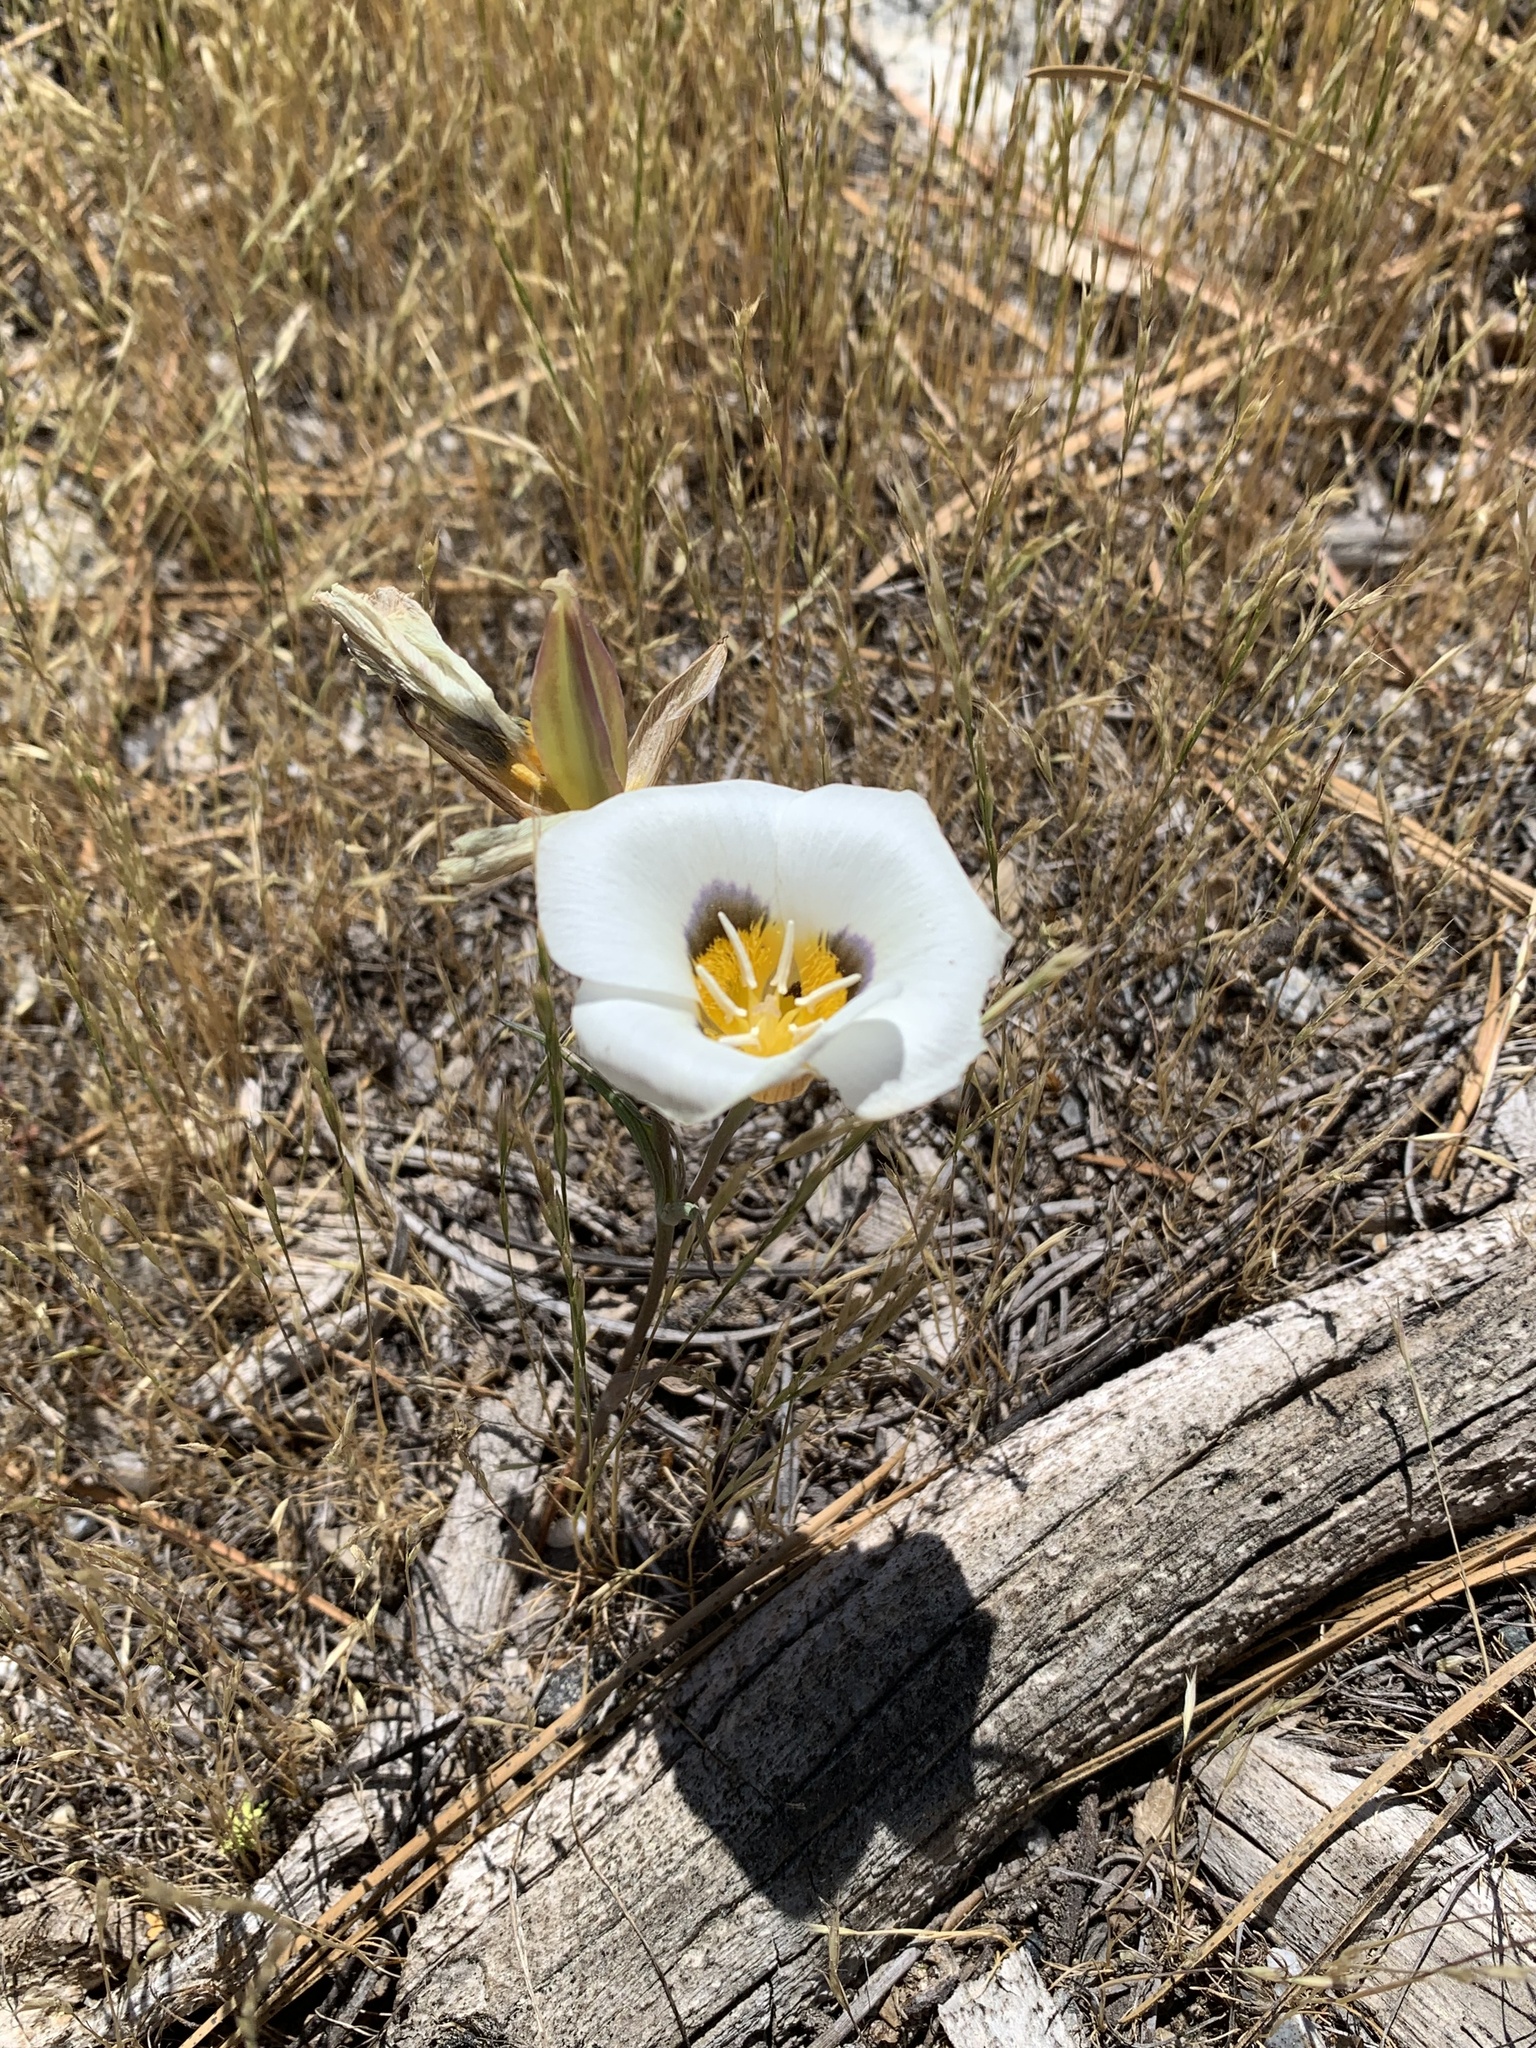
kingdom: Plantae
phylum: Tracheophyta
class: Liliopsida
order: Liliales
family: Liliaceae
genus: Calochortus
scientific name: Calochortus leichtlinii
